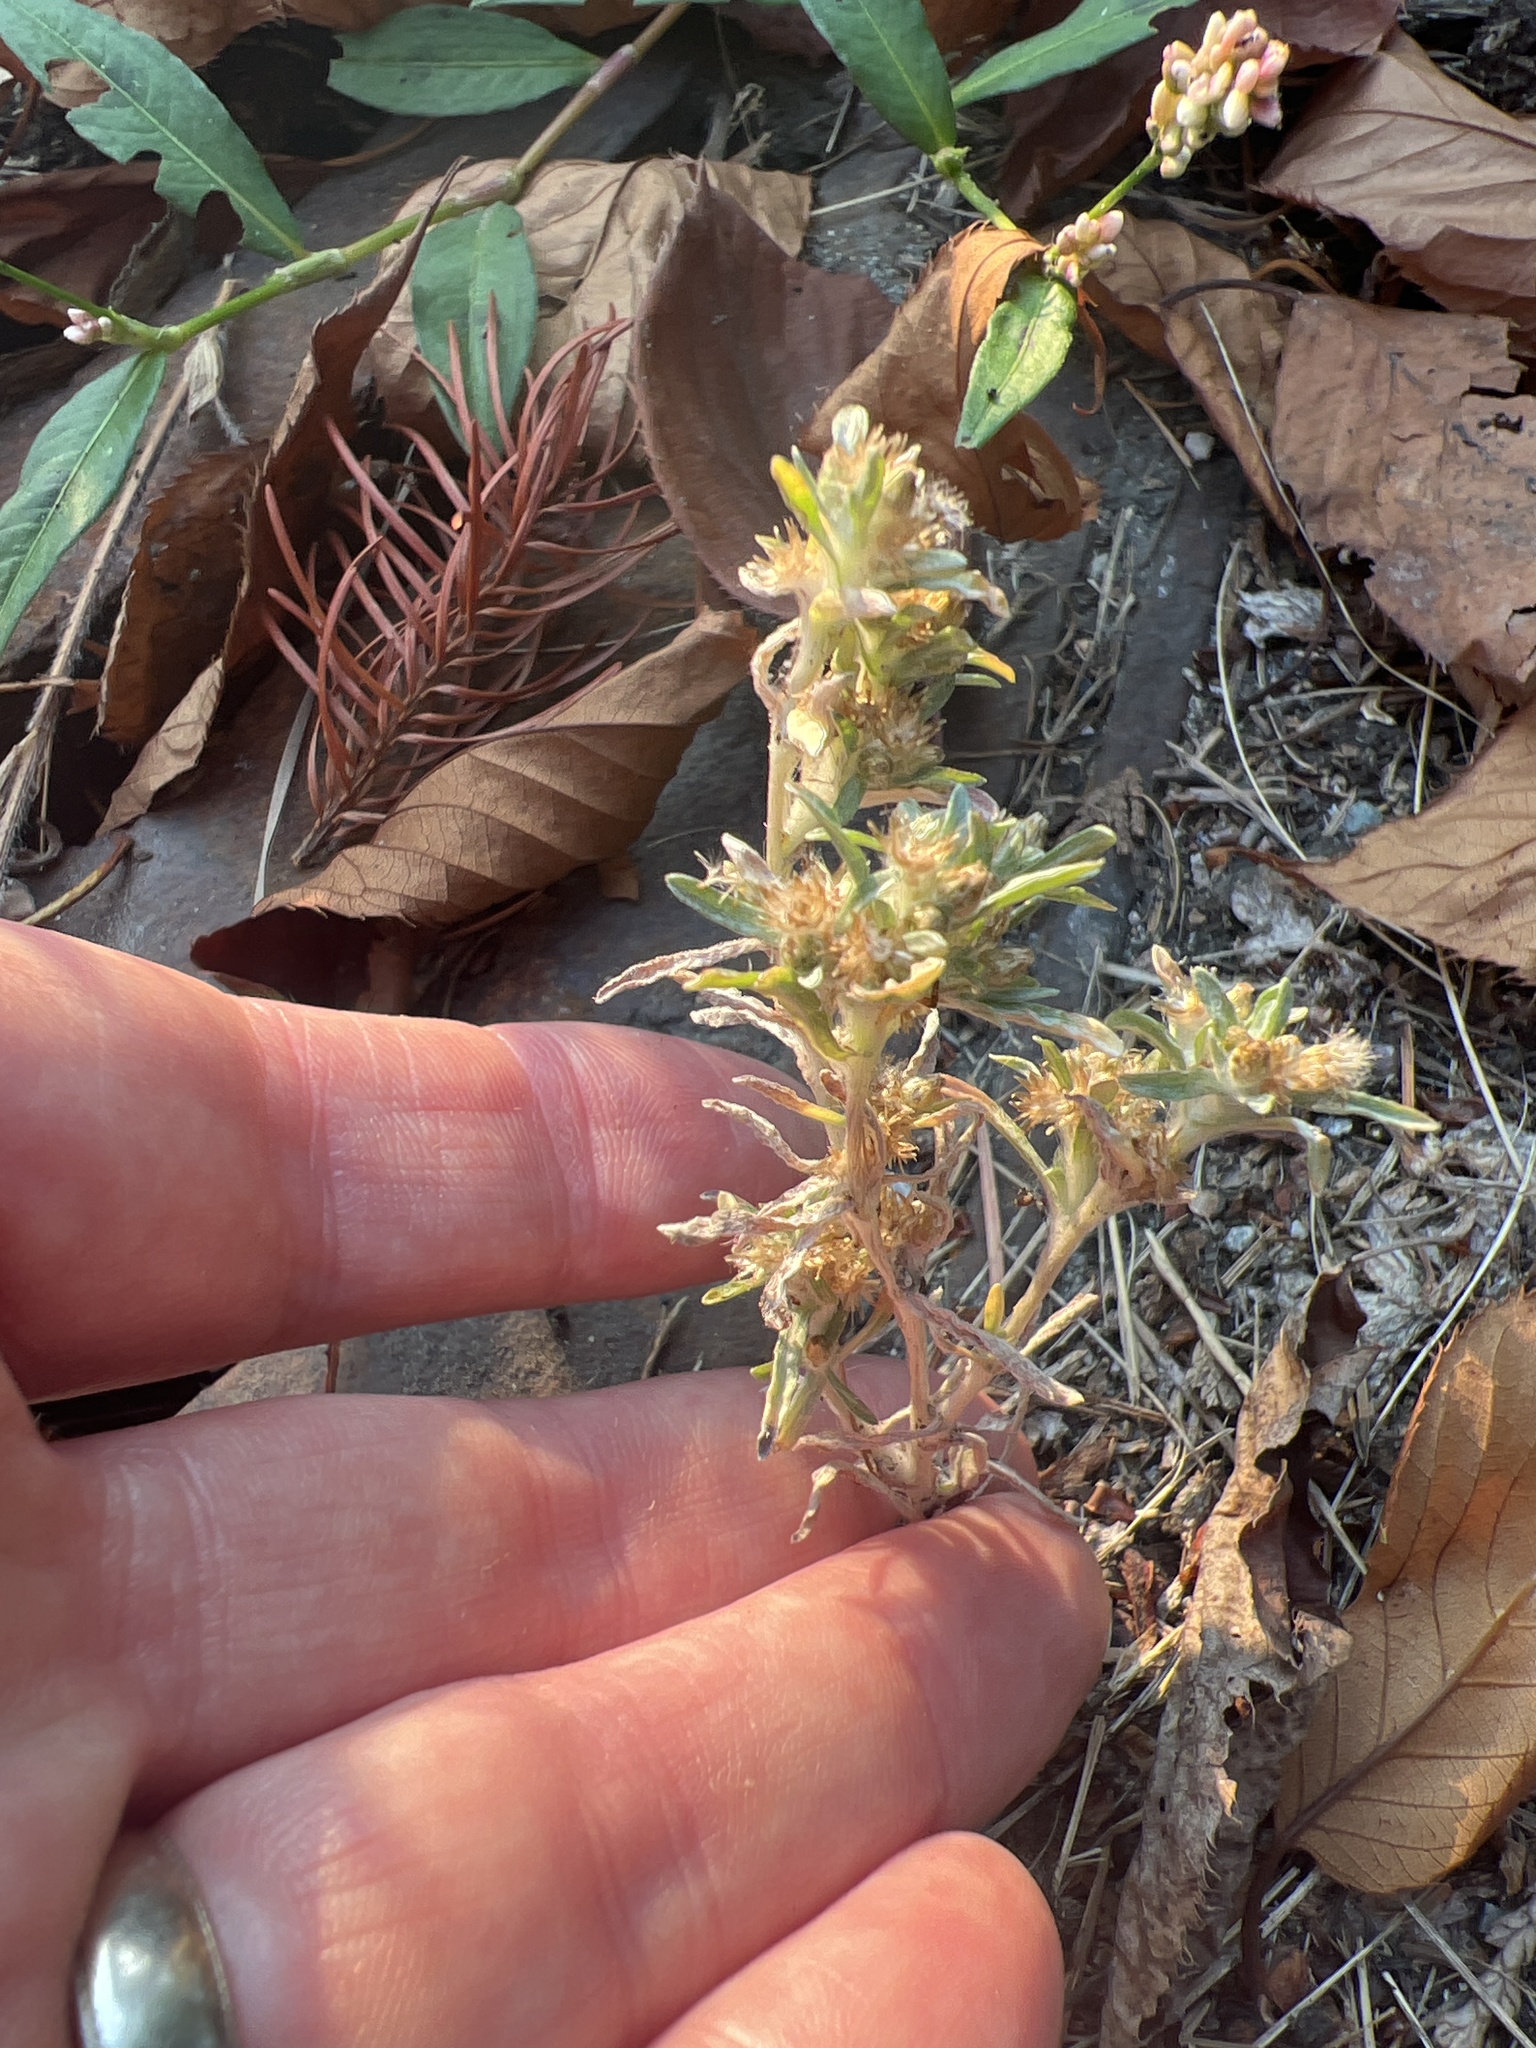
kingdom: Plantae
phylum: Tracheophyta
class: Magnoliopsida
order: Asterales
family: Asteraceae
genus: Gnaphalium
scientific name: Gnaphalium uliginosum
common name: Marsh cudweed
